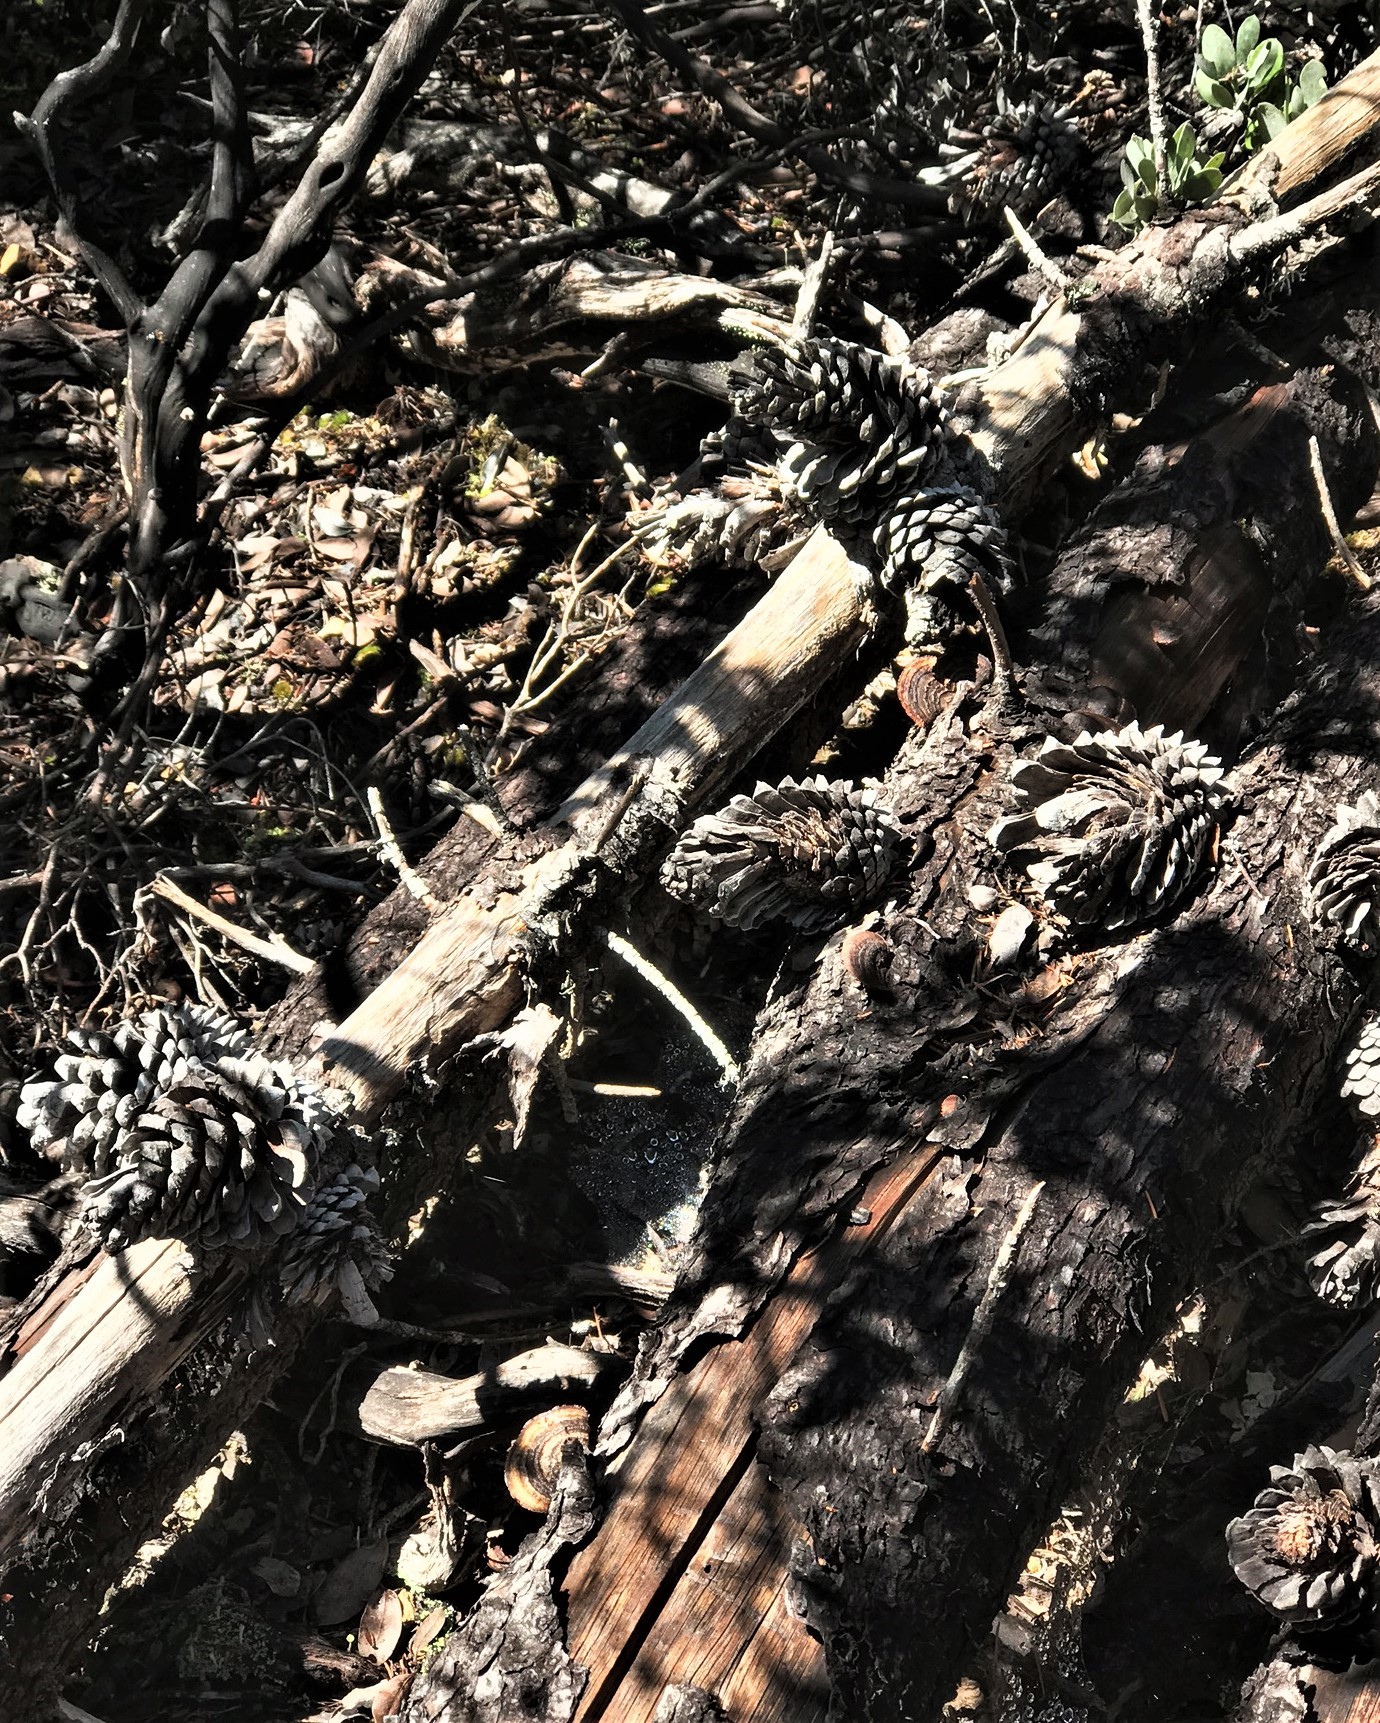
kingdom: Plantae
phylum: Tracheophyta
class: Pinopsida
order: Pinales
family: Pinaceae
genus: Pinus
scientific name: Pinus attenuata
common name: Knobcone pine
